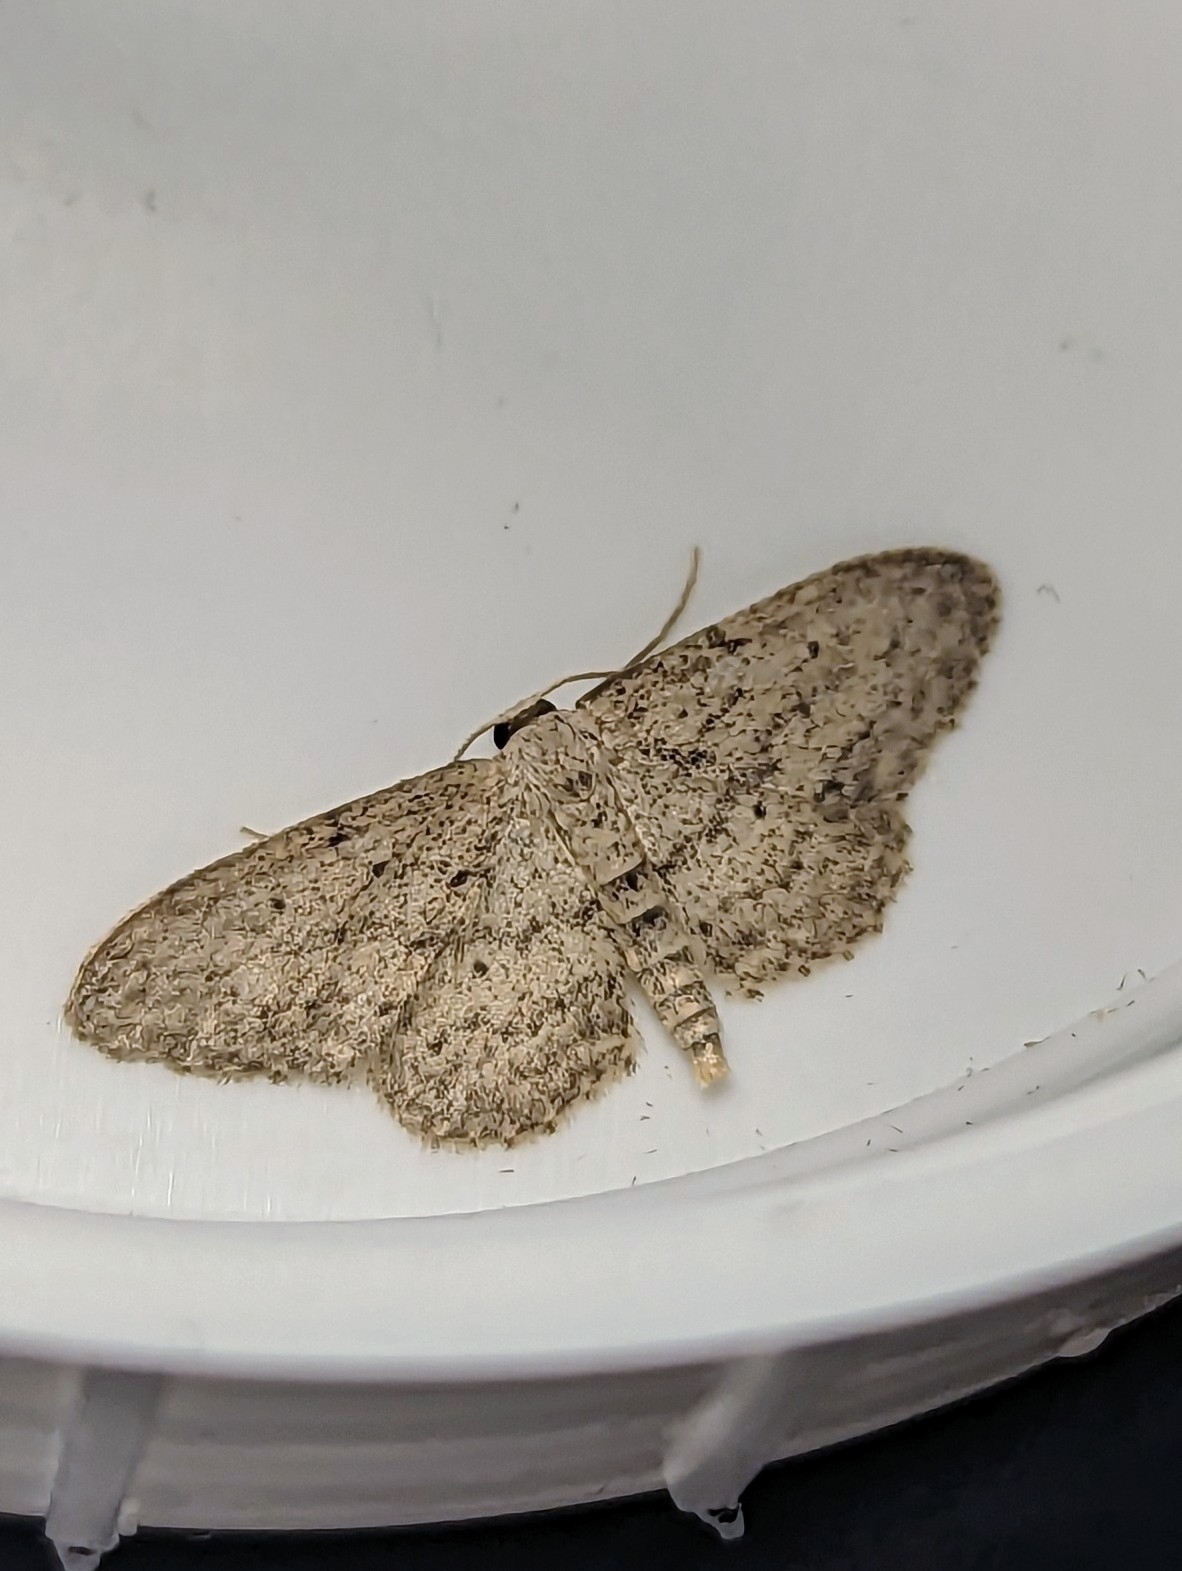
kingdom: Animalia
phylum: Arthropoda
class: Insecta
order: Lepidoptera
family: Geometridae
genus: Idaea
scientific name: Idaea seriata
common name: Small dusty wave
